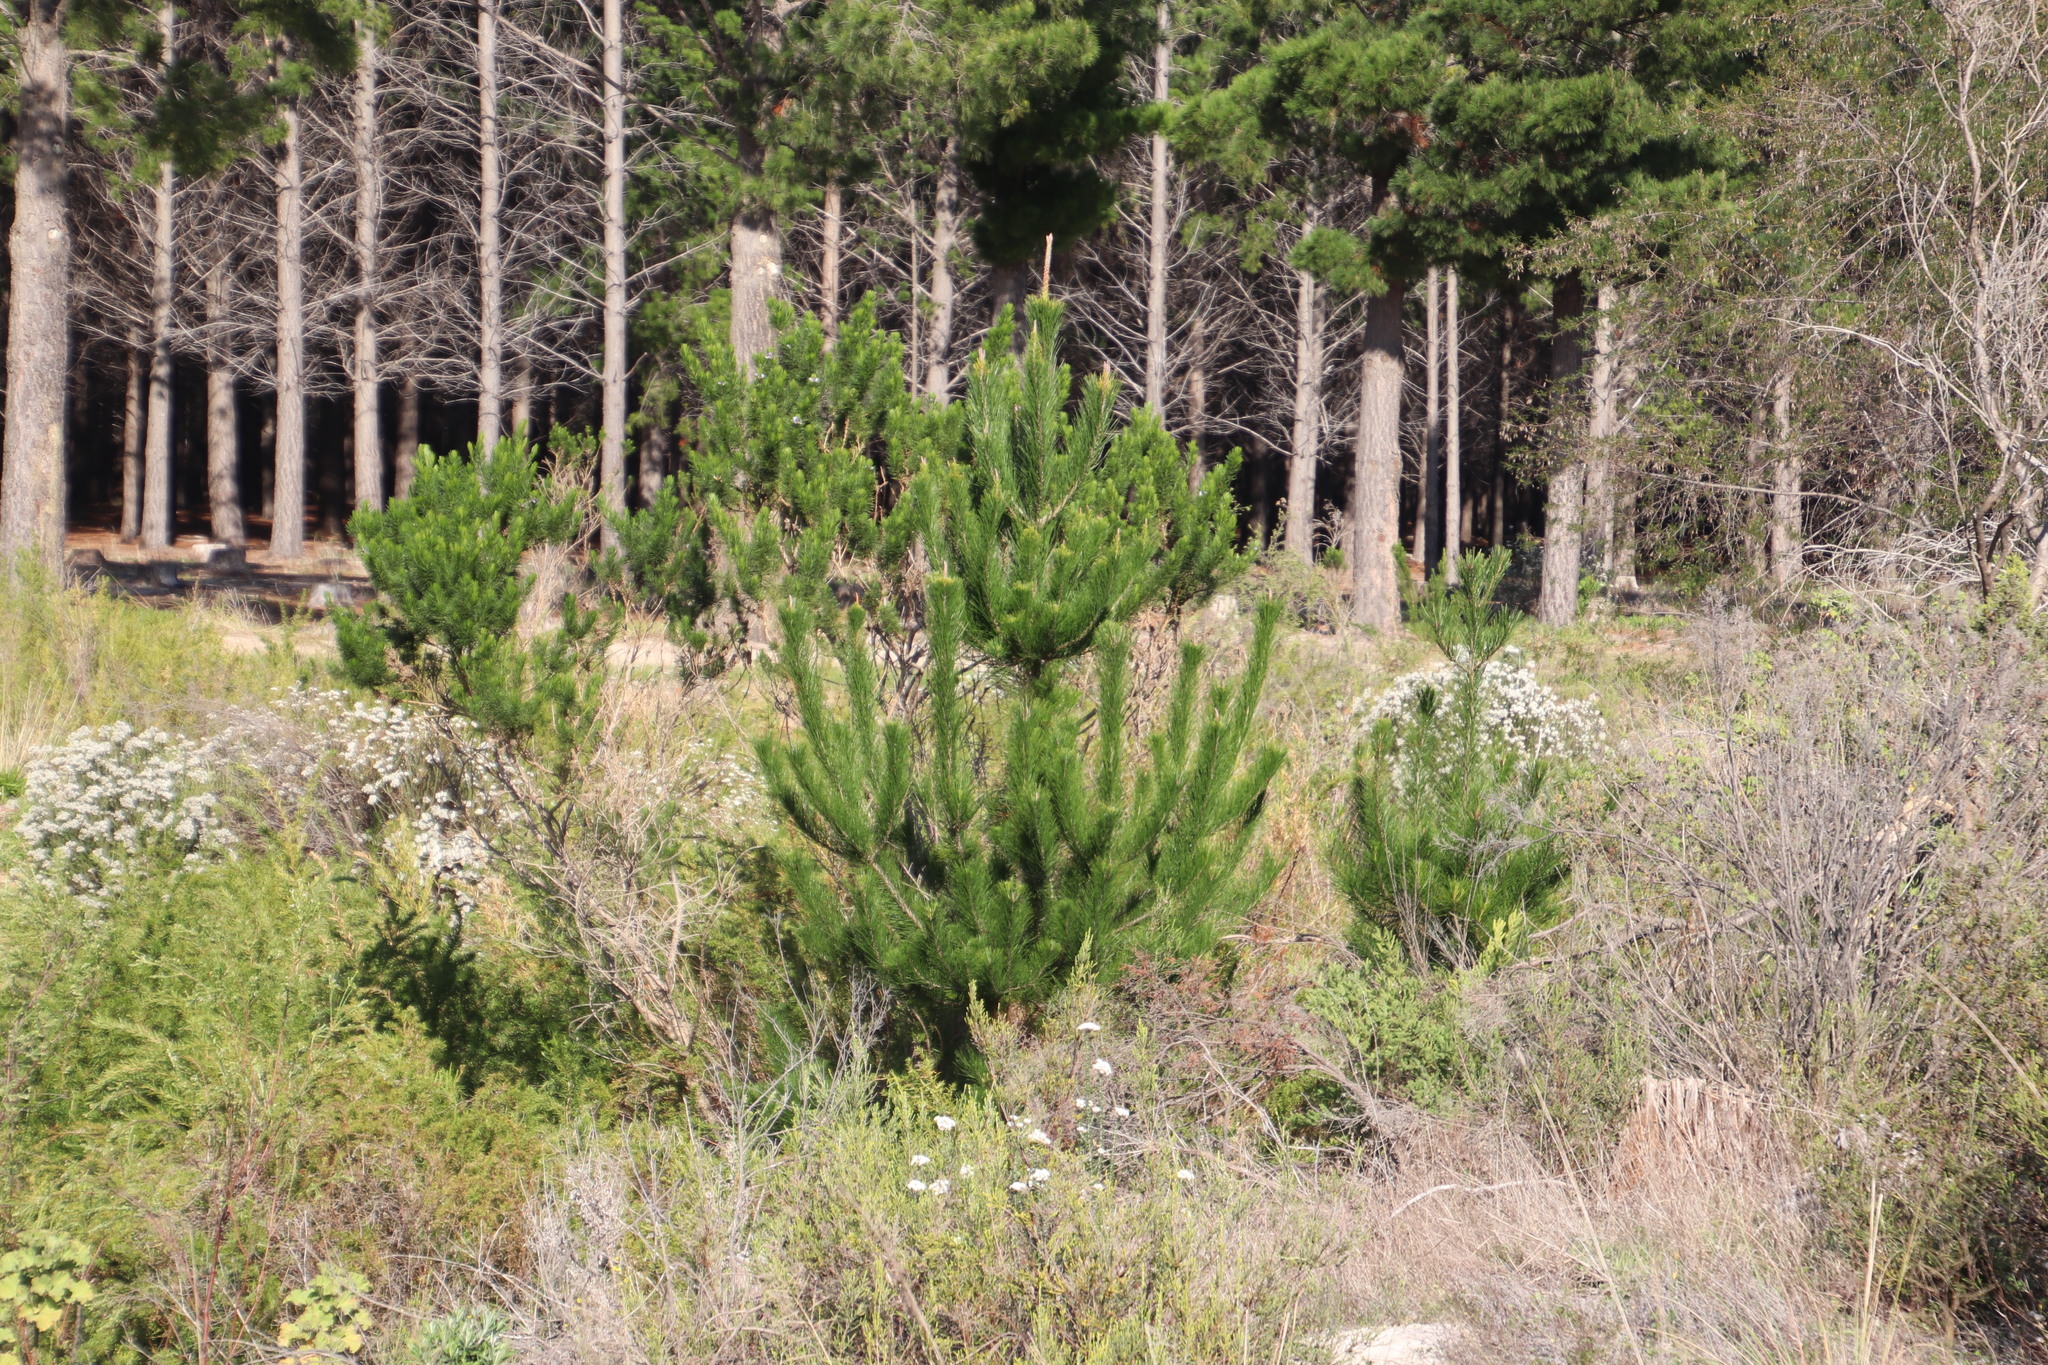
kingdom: Plantae
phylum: Tracheophyta
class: Pinopsida
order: Pinales
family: Pinaceae
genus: Pinus
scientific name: Pinus radiata
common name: Monterey pine
